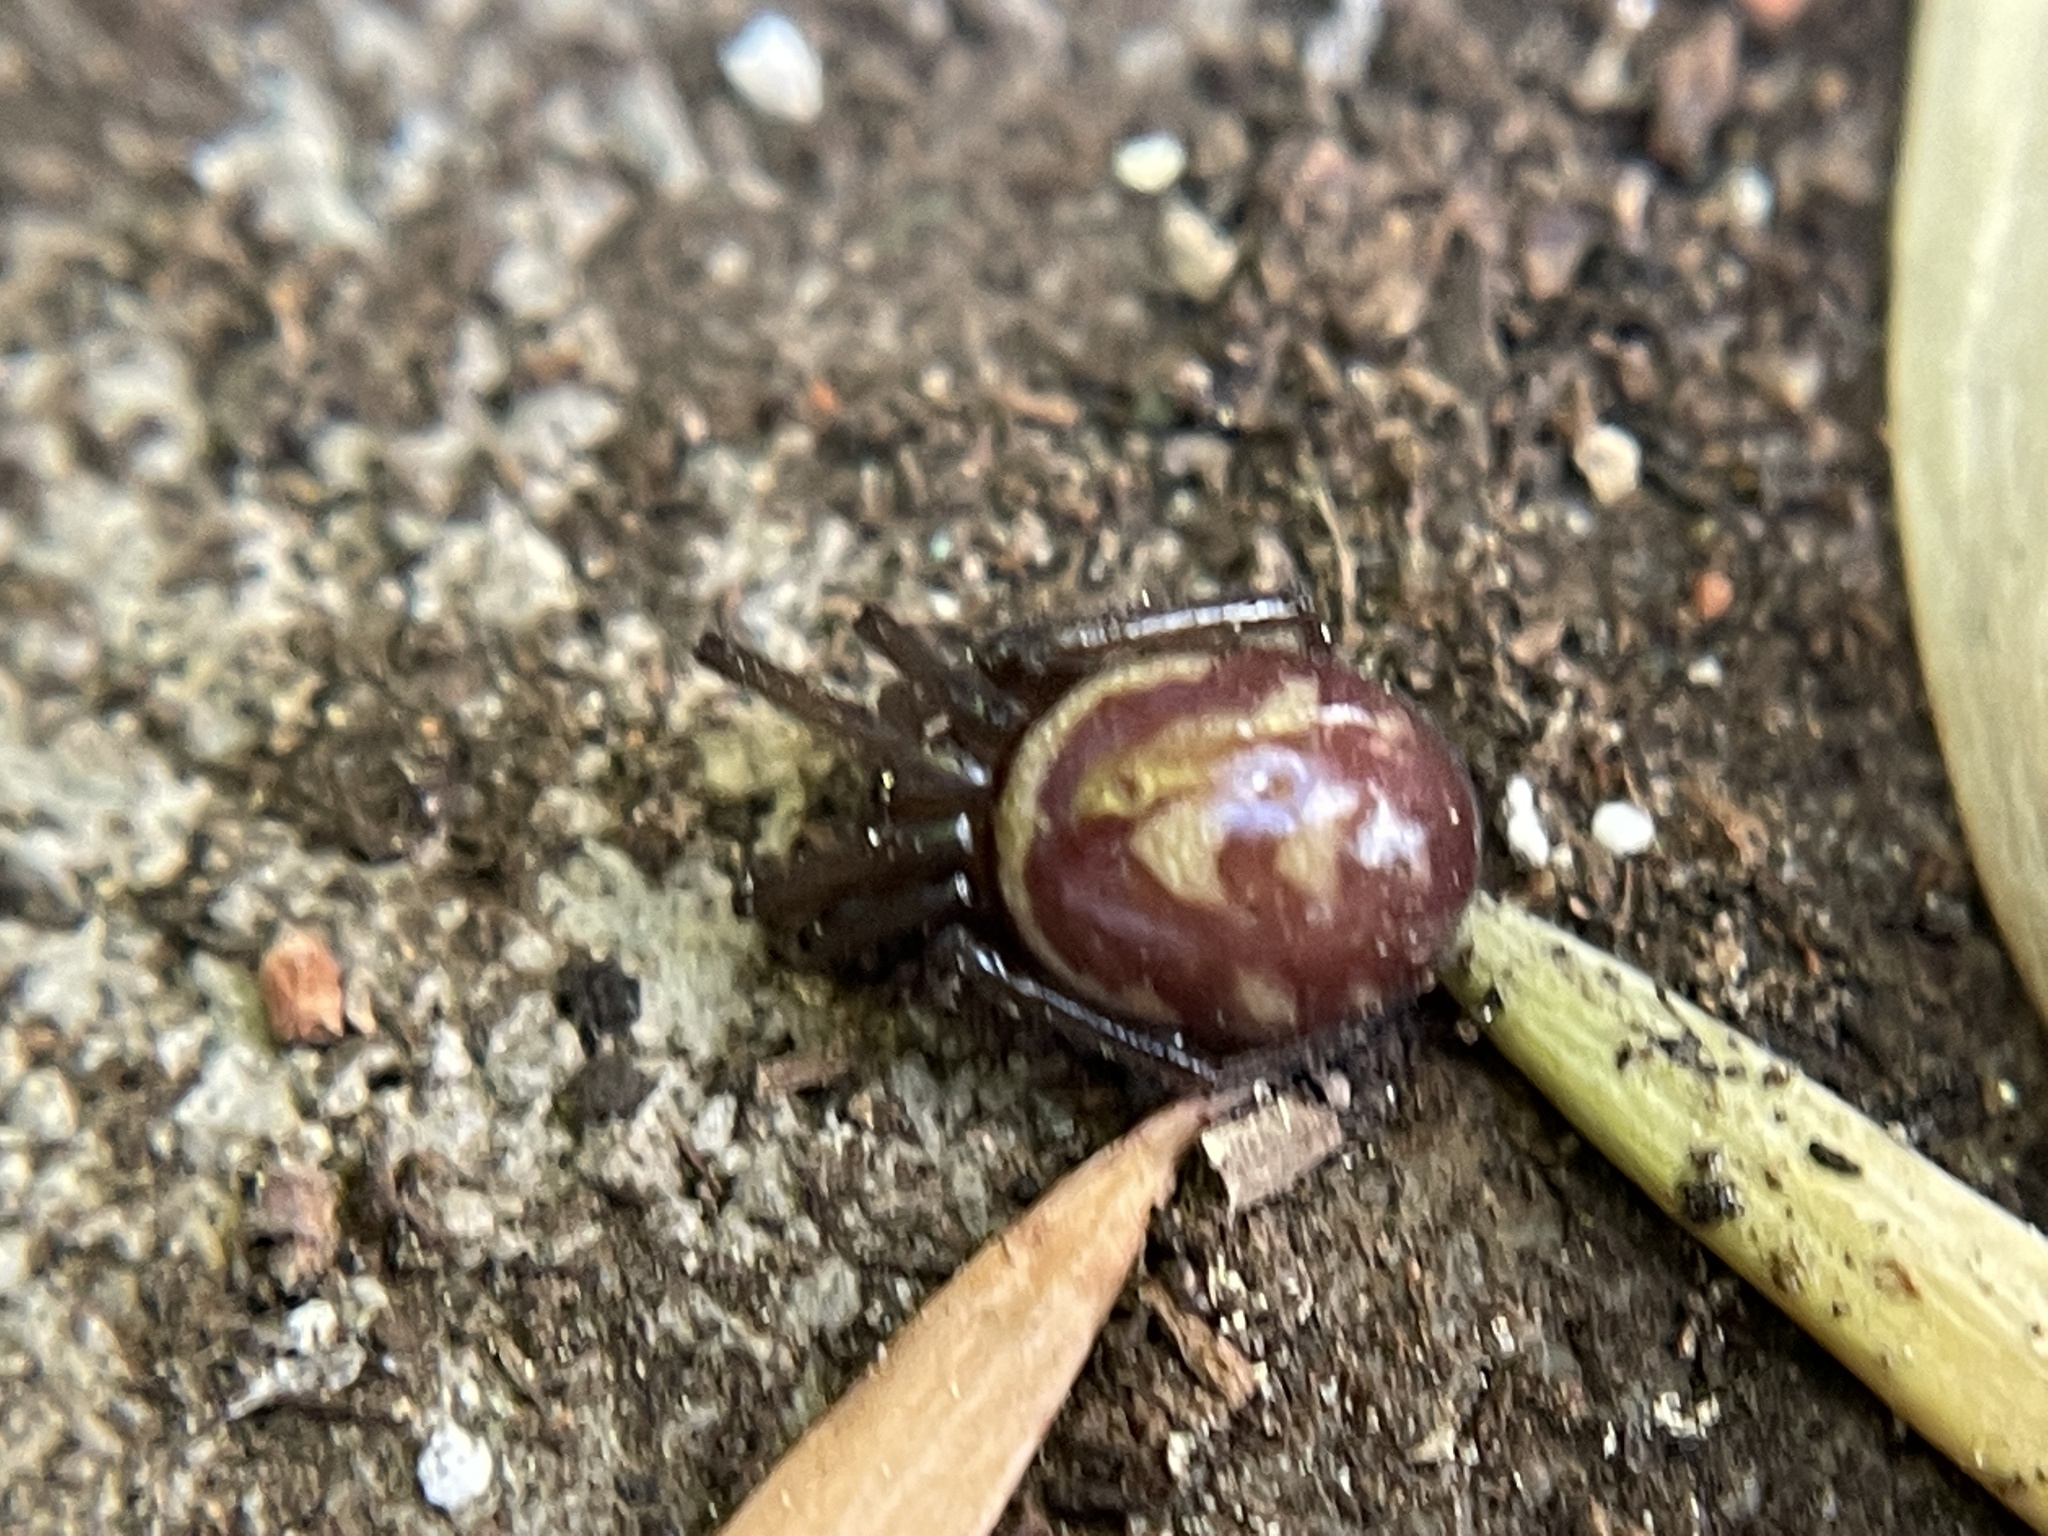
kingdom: Animalia
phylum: Arthropoda
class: Arachnida
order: Araneae
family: Theridiidae
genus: Steatoda
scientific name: Steatoda grossa
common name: False black widow
